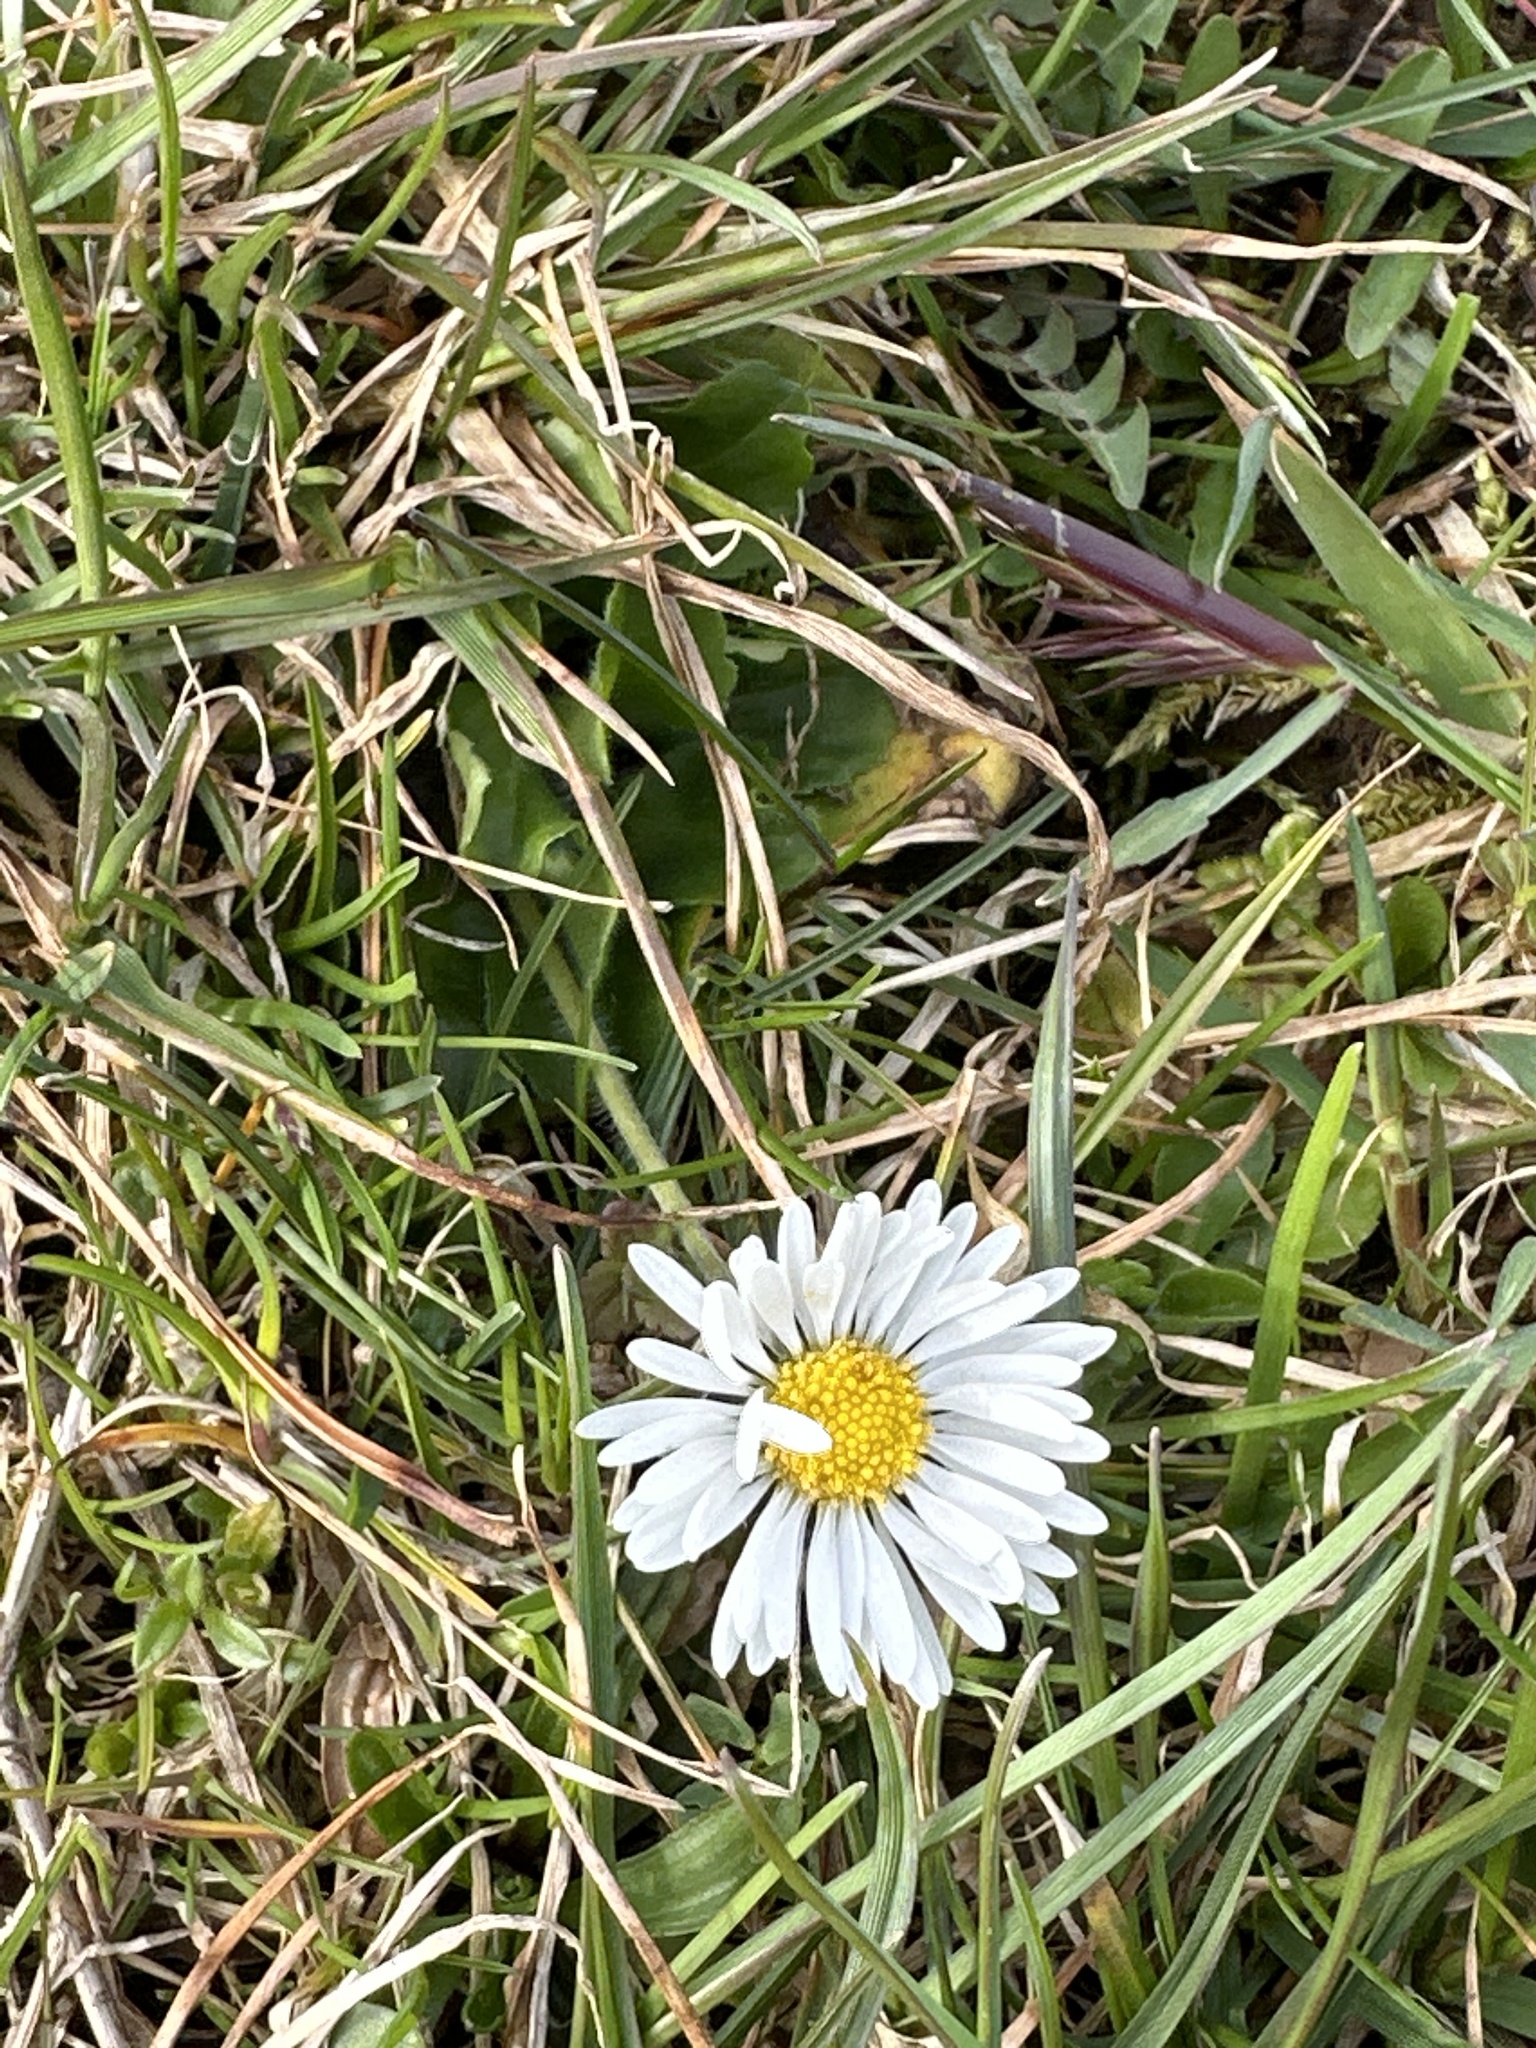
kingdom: Plantae
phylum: Tracheophyta
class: Magnoliopsida
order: Asterales
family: Asteraceae
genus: Bellis
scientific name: Bellis perennis
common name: Lawndaisy
